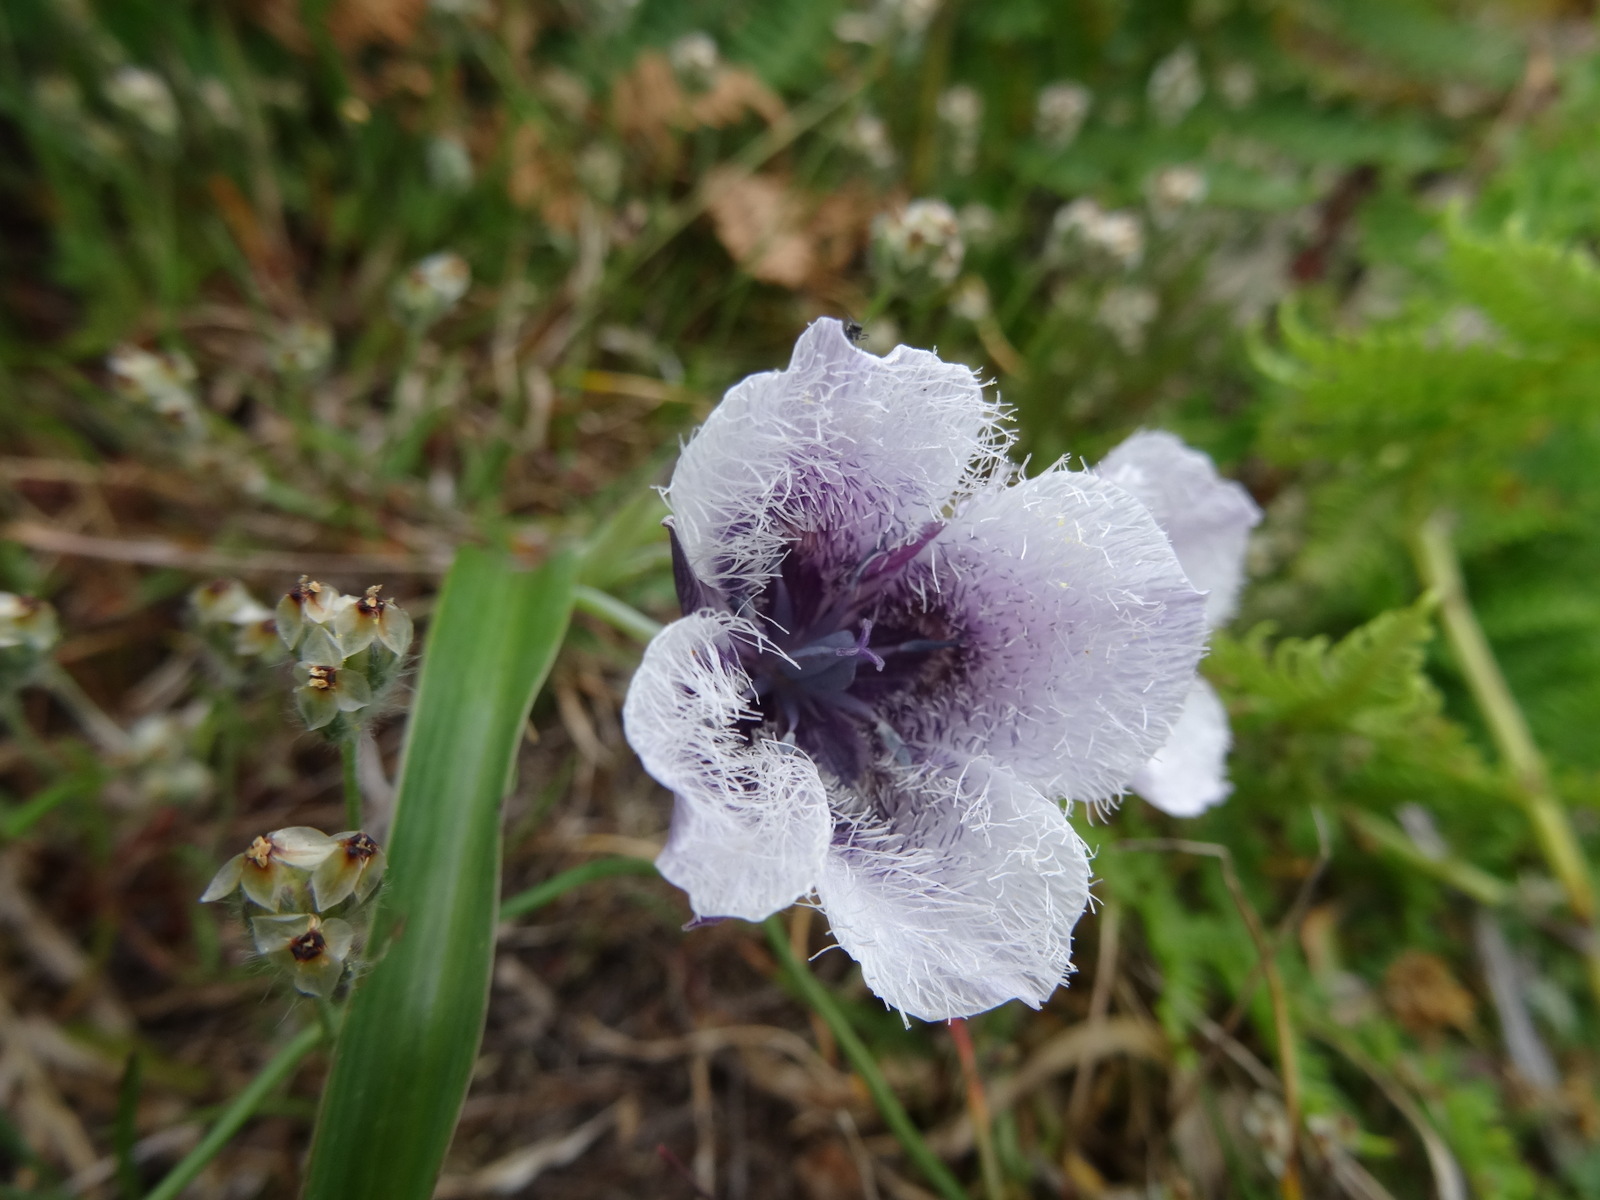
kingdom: Plantae
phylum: Tracheophyta
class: Liliopsida
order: Liliales
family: Liliaceae
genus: Calochortus
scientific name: Calochortus tolmiei
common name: Pussy-ears
